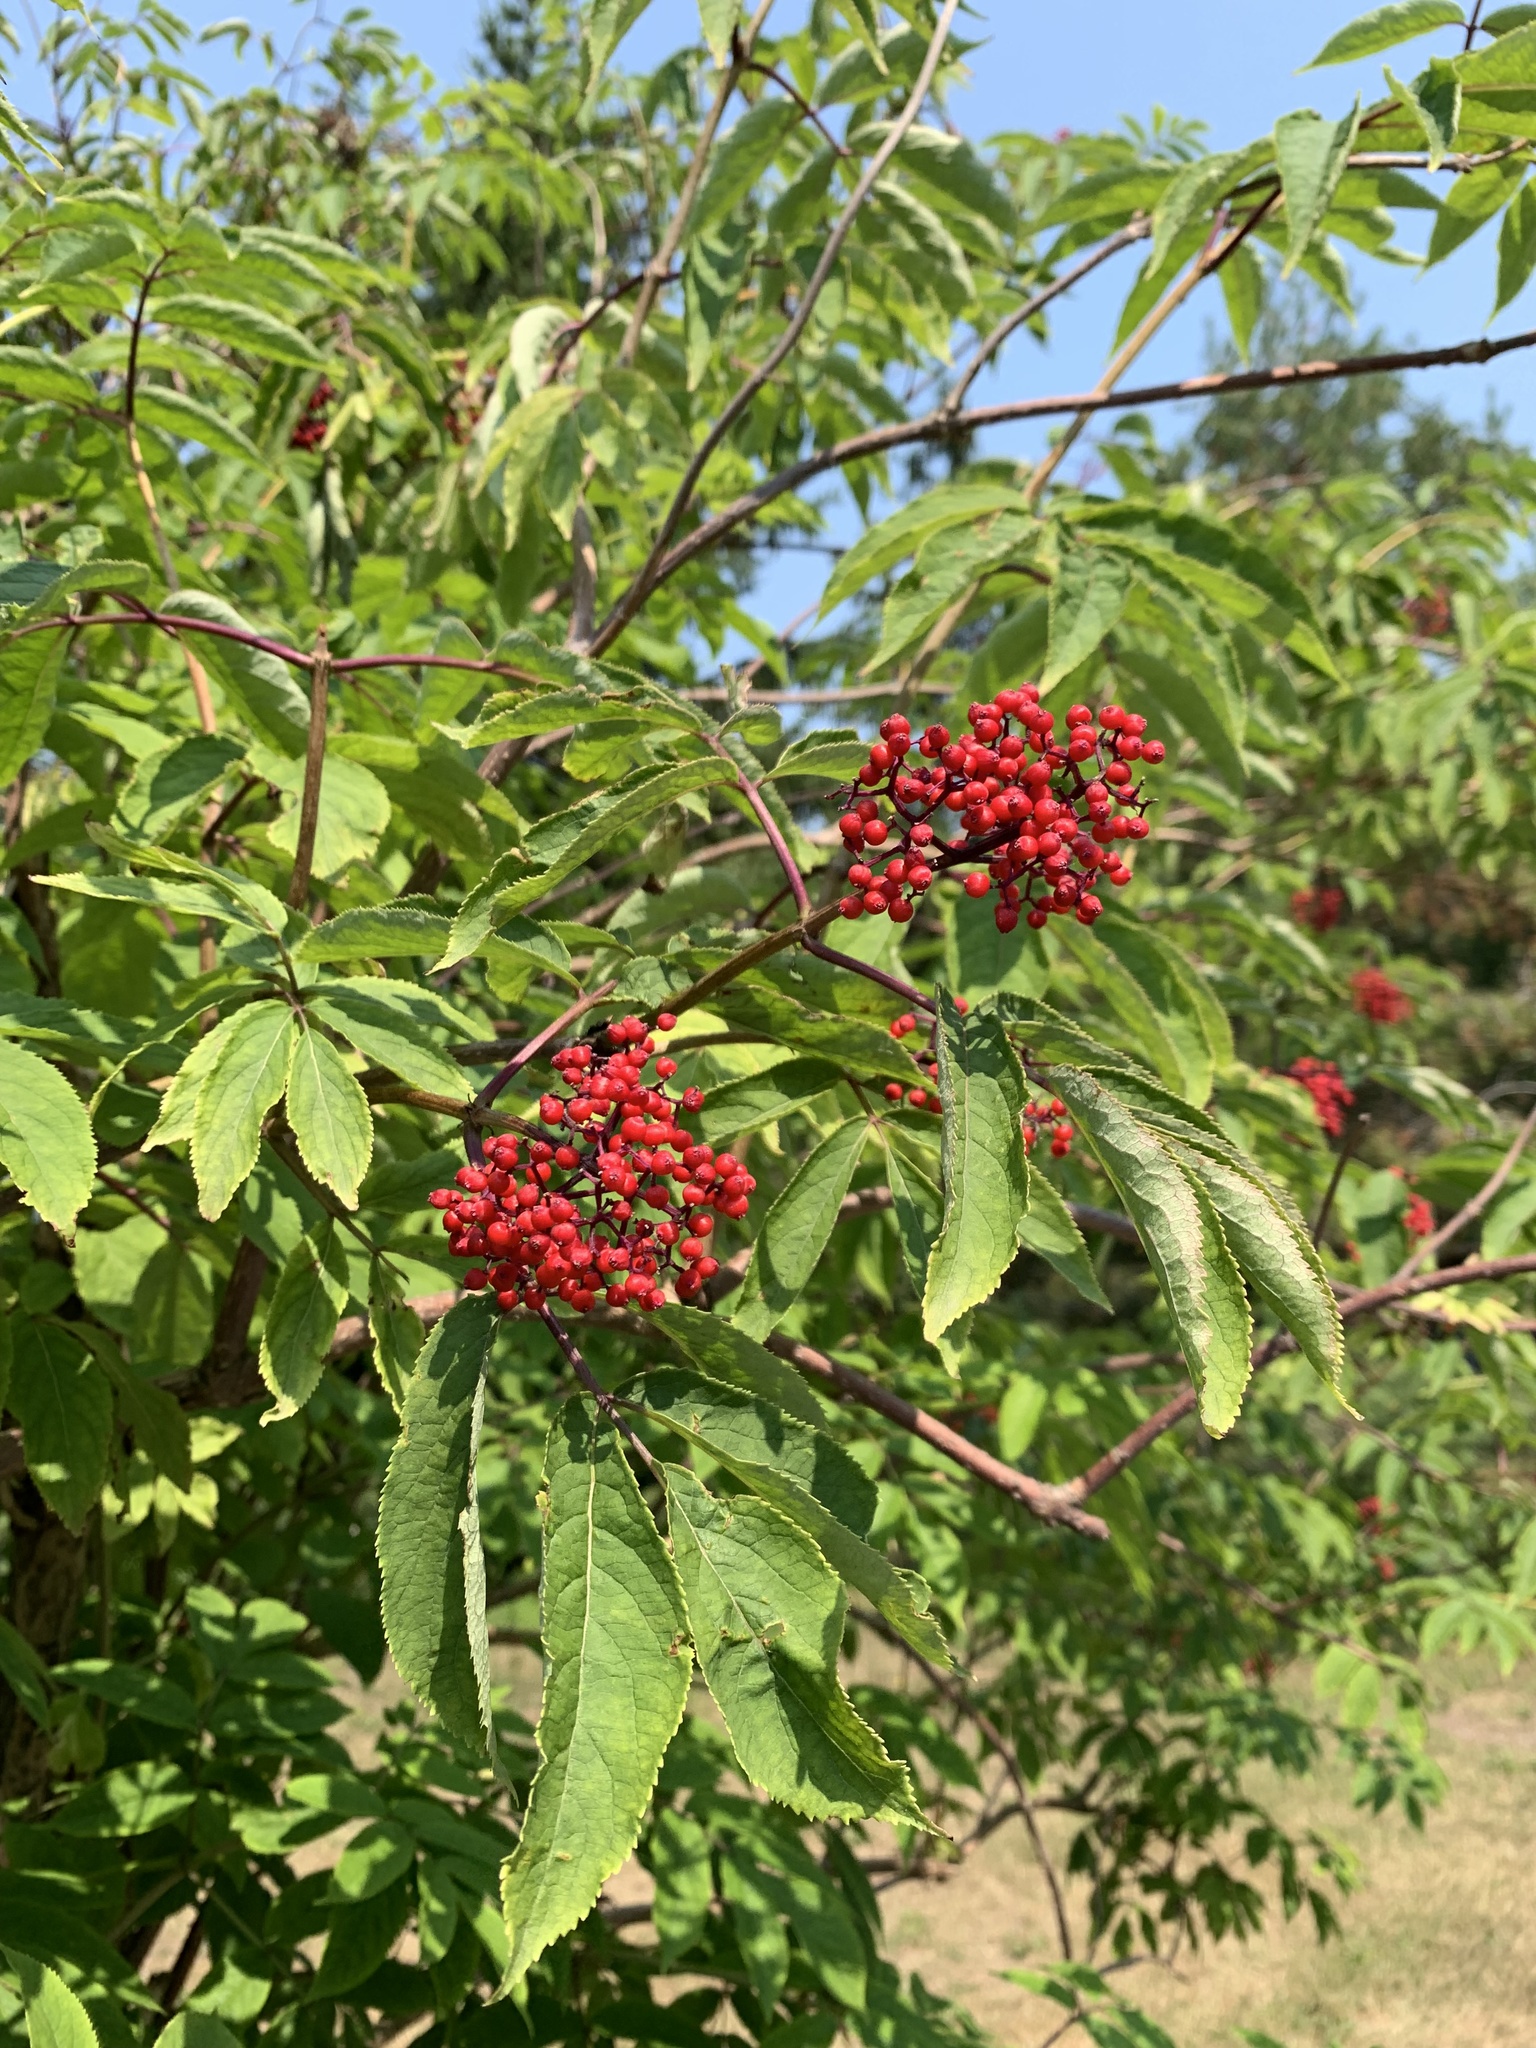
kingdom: Plantae
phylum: Tracheophyta
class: Magnoliopsida
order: Dipsacales
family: Viburnaceae
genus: Sambucus
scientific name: Sambucus racemosa
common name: Red-berried elder
